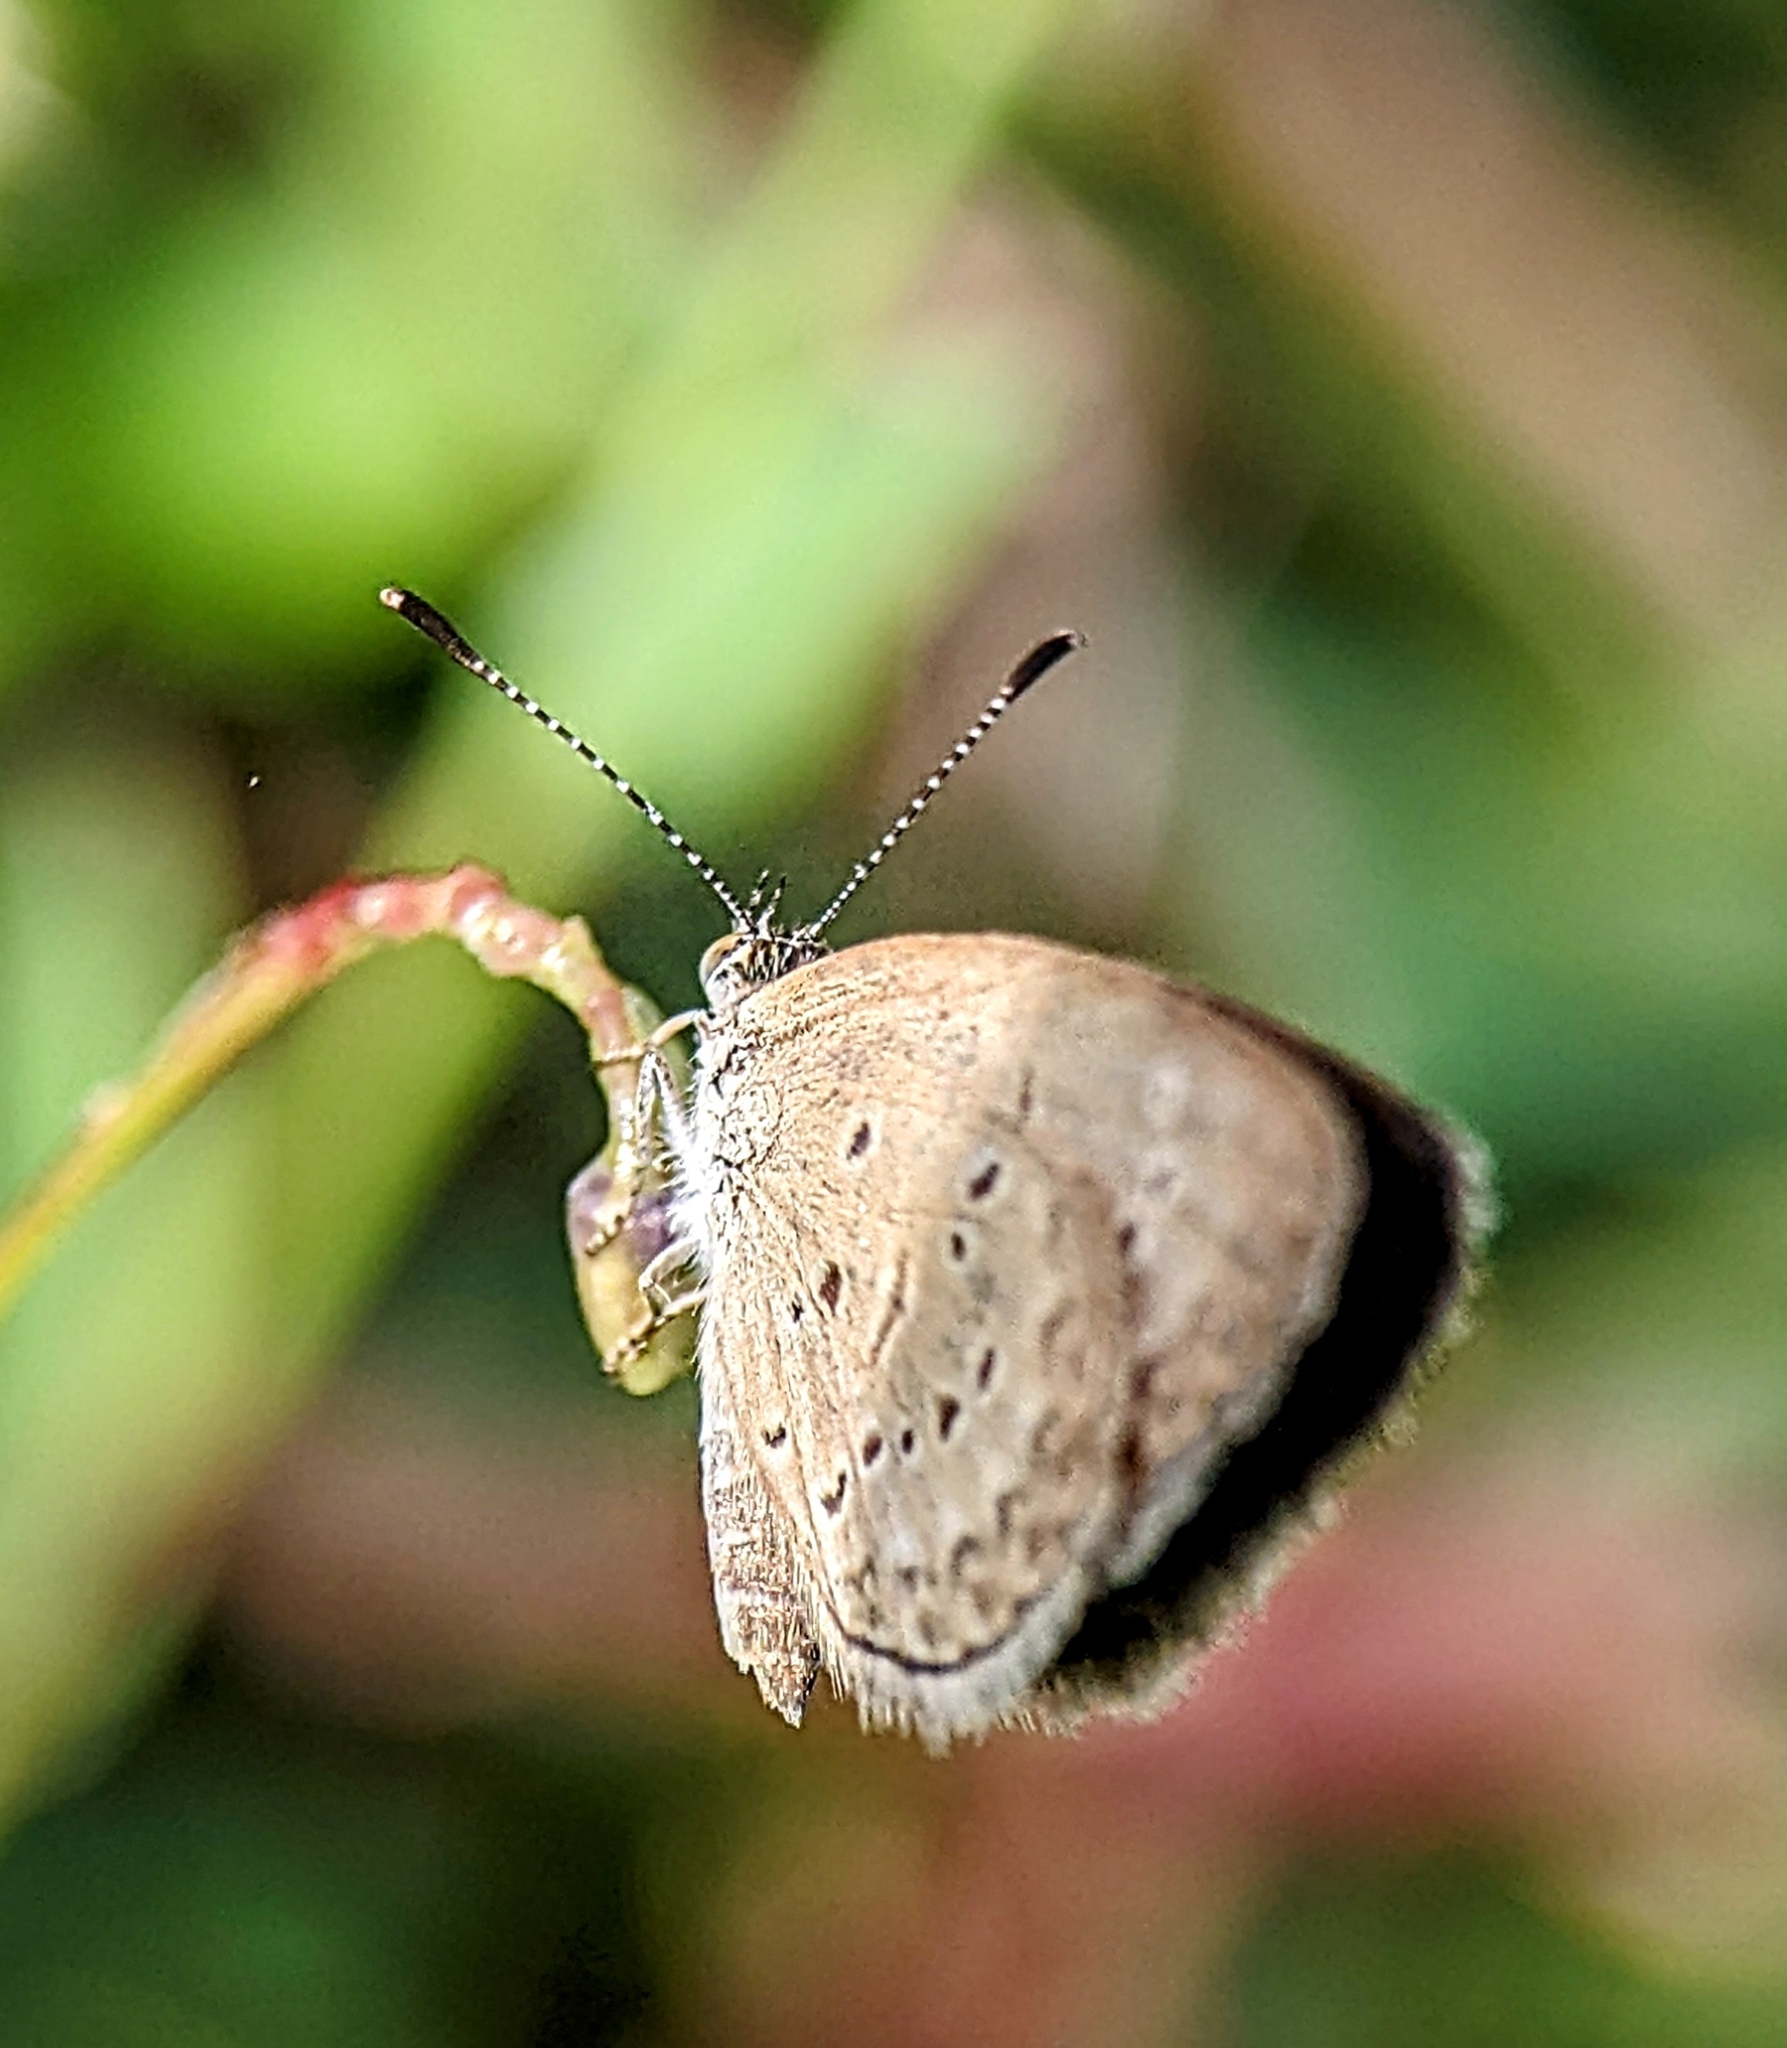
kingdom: Animalia
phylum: Arthropoda
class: Insecta
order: Lepidoptera
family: Lycaenidae
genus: Zizina
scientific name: Zizina otis
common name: Lesser grass blue
